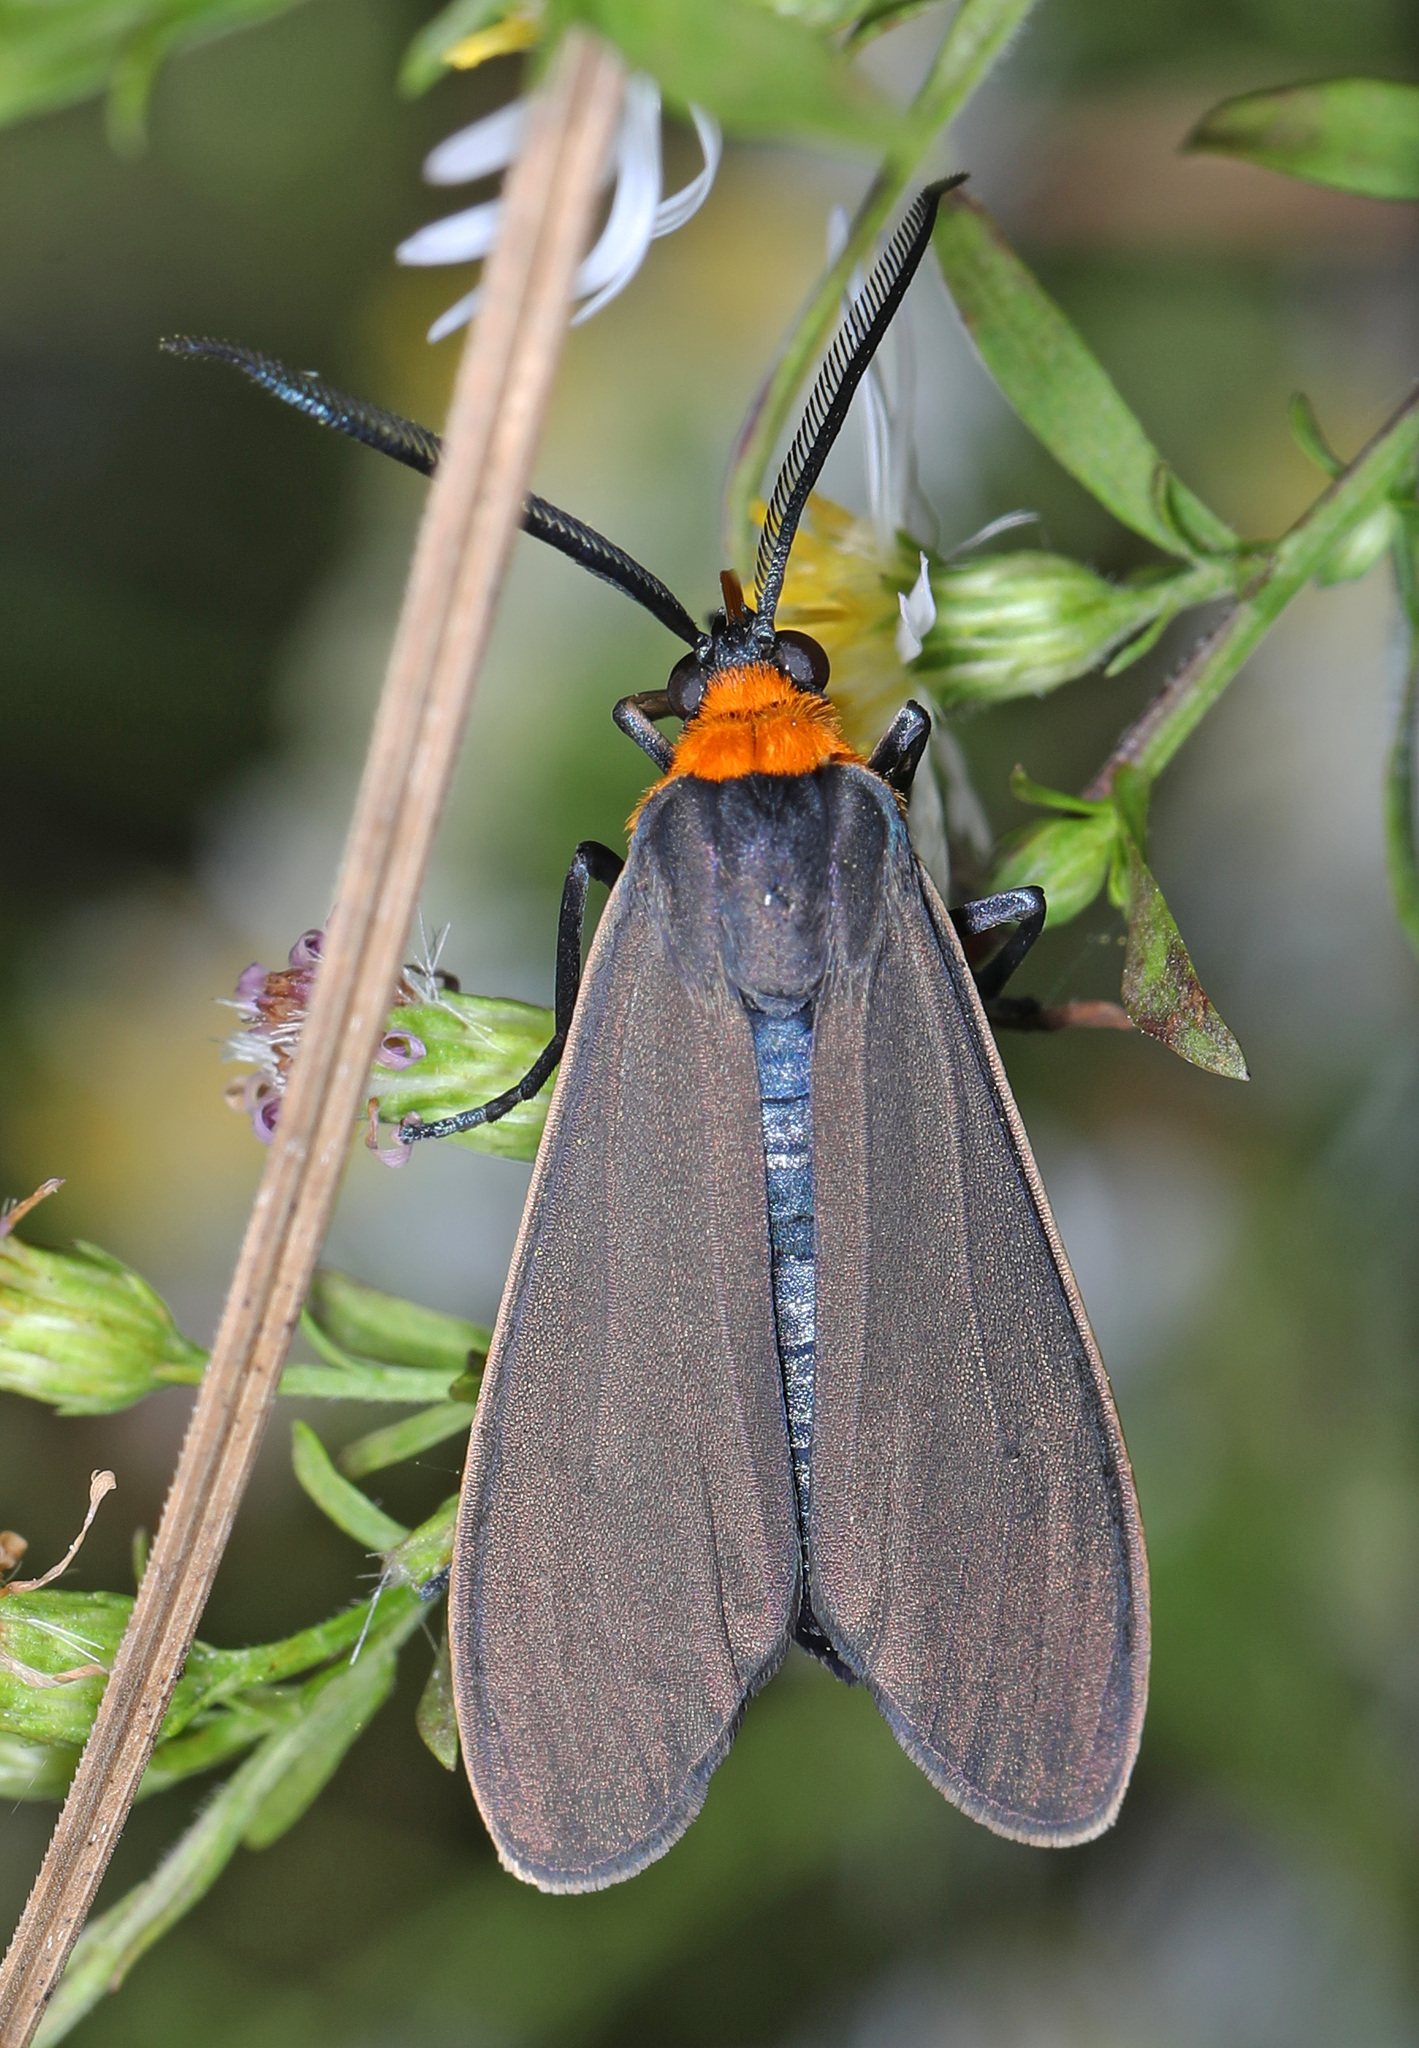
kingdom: Animalia
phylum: Arthropoda
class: Insecta
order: Lepidoptera
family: Erebidae
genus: Cisseps
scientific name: Cisseps fulvicollis
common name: Yellow-collared scape moth
